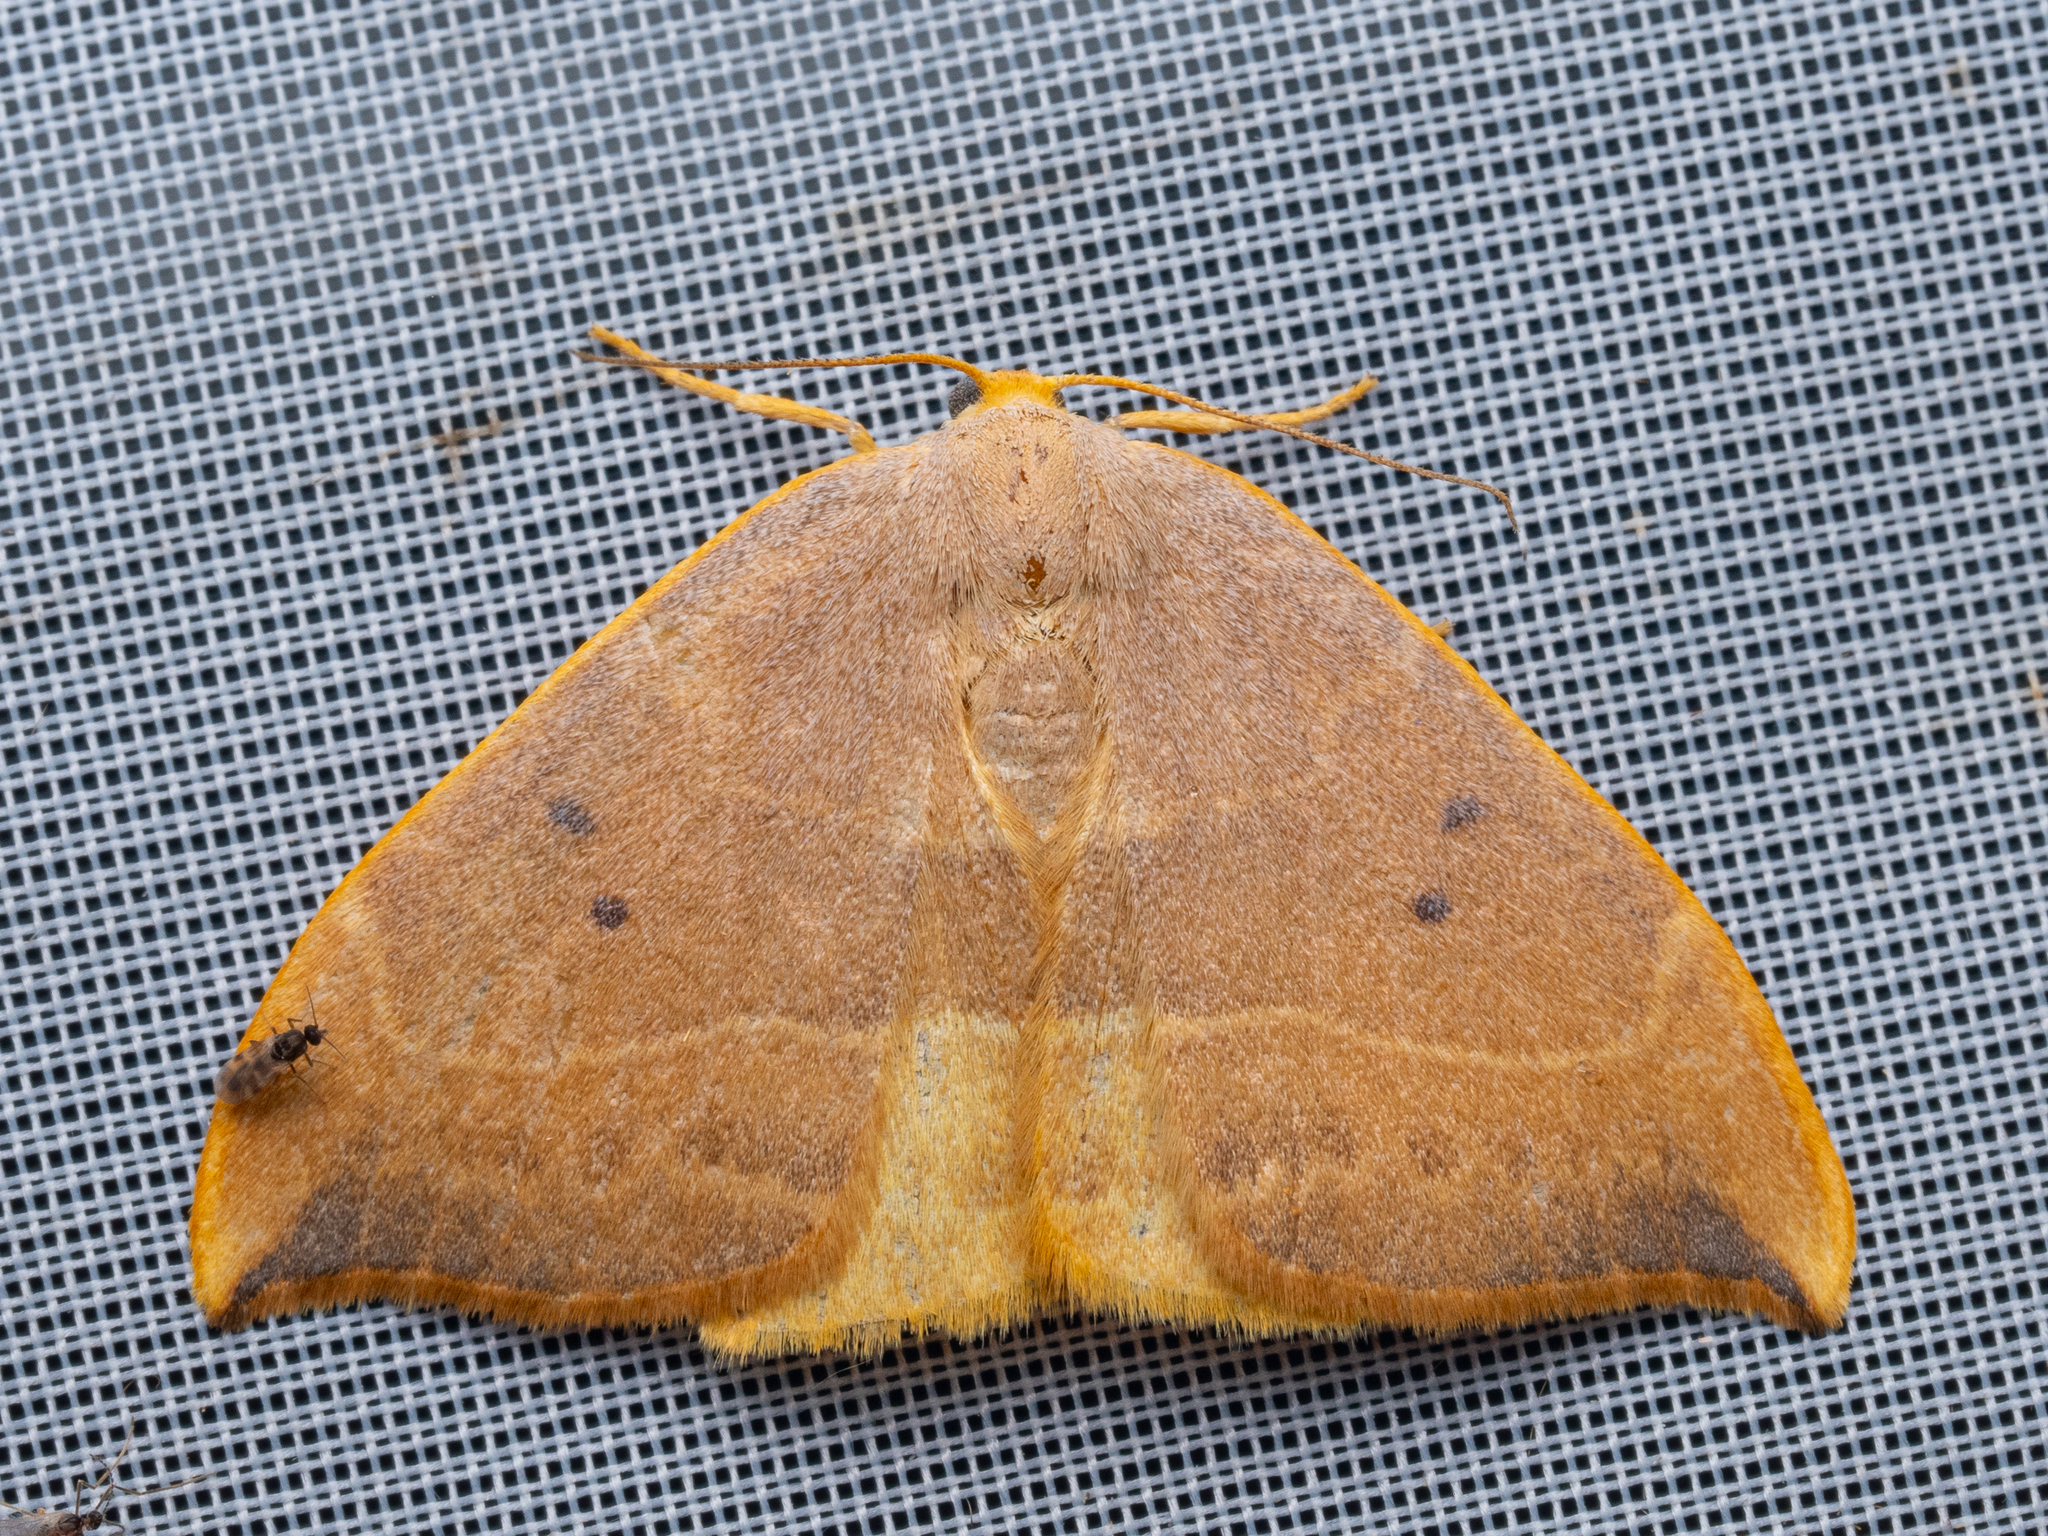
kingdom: Animalia
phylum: Arthropoda
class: Insecta
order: Lepidoptera
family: Drepanidae
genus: Watsonalla
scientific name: Watsonalla binaria
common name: Oak hook-tip
